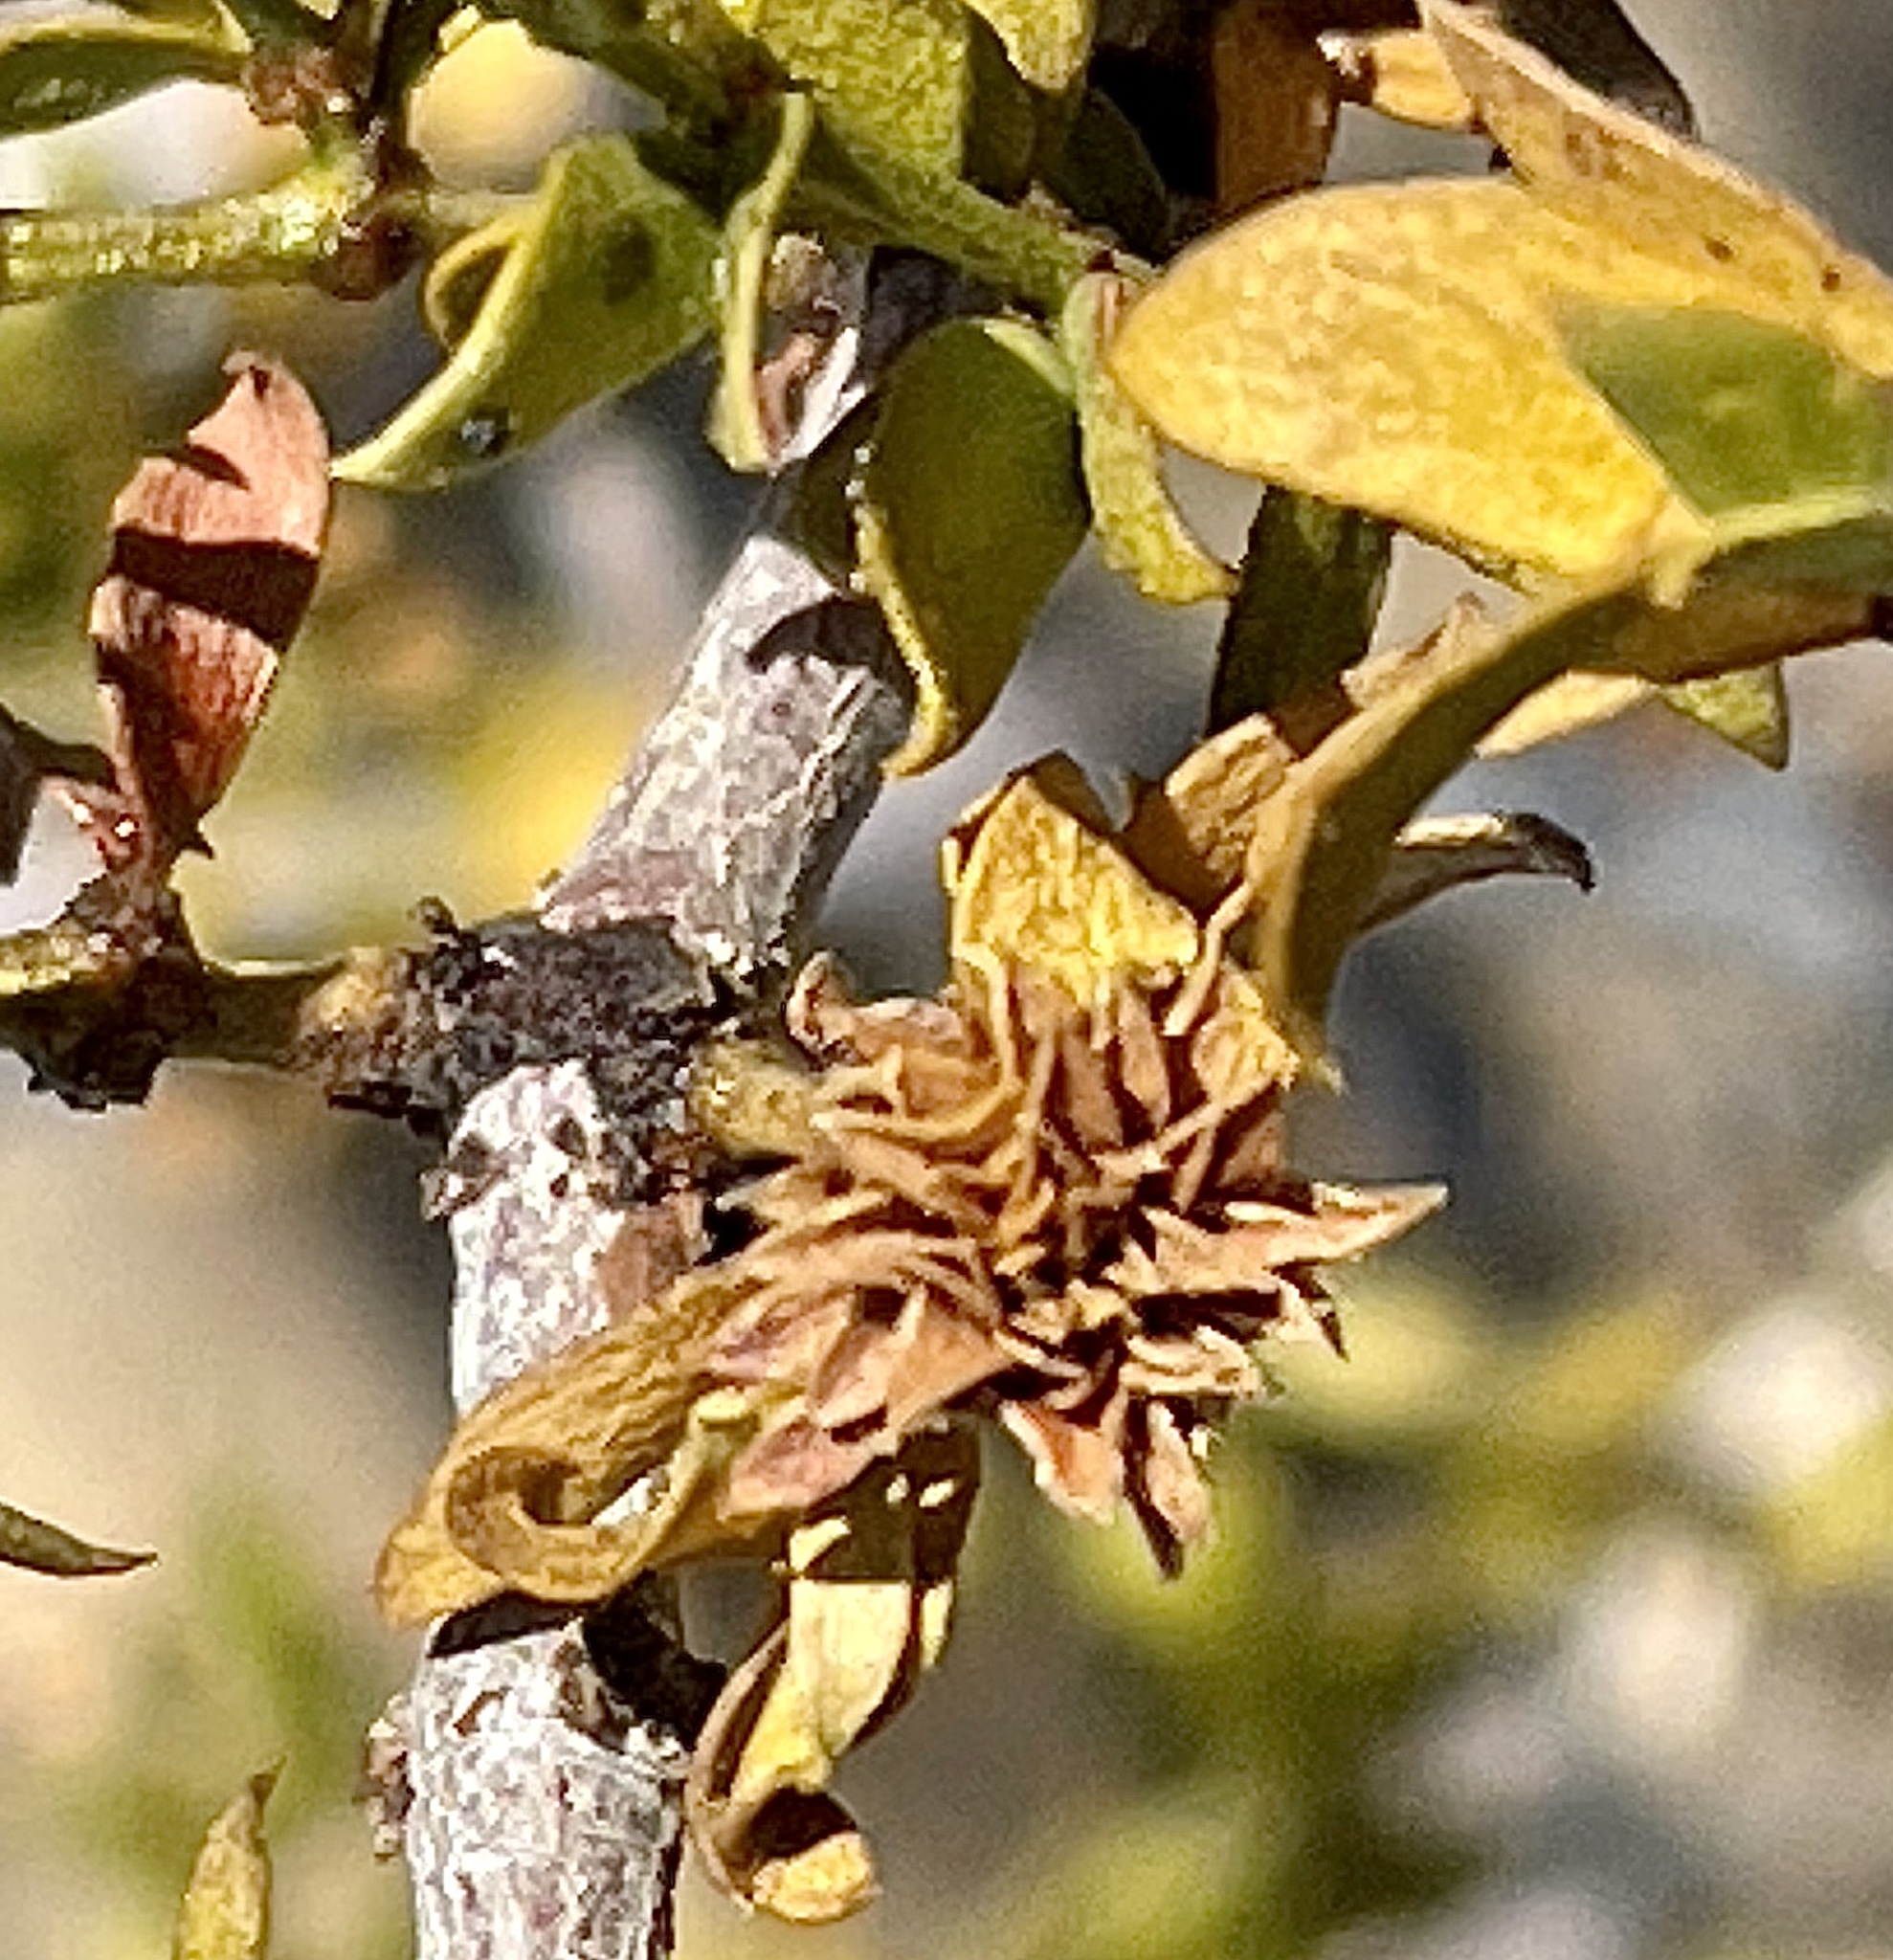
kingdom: Plantae
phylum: Tracheophyta
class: Magnoliopsida
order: Zygophyllales
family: Zygophyllaceae
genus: Larrea
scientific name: Larrea tridentata
